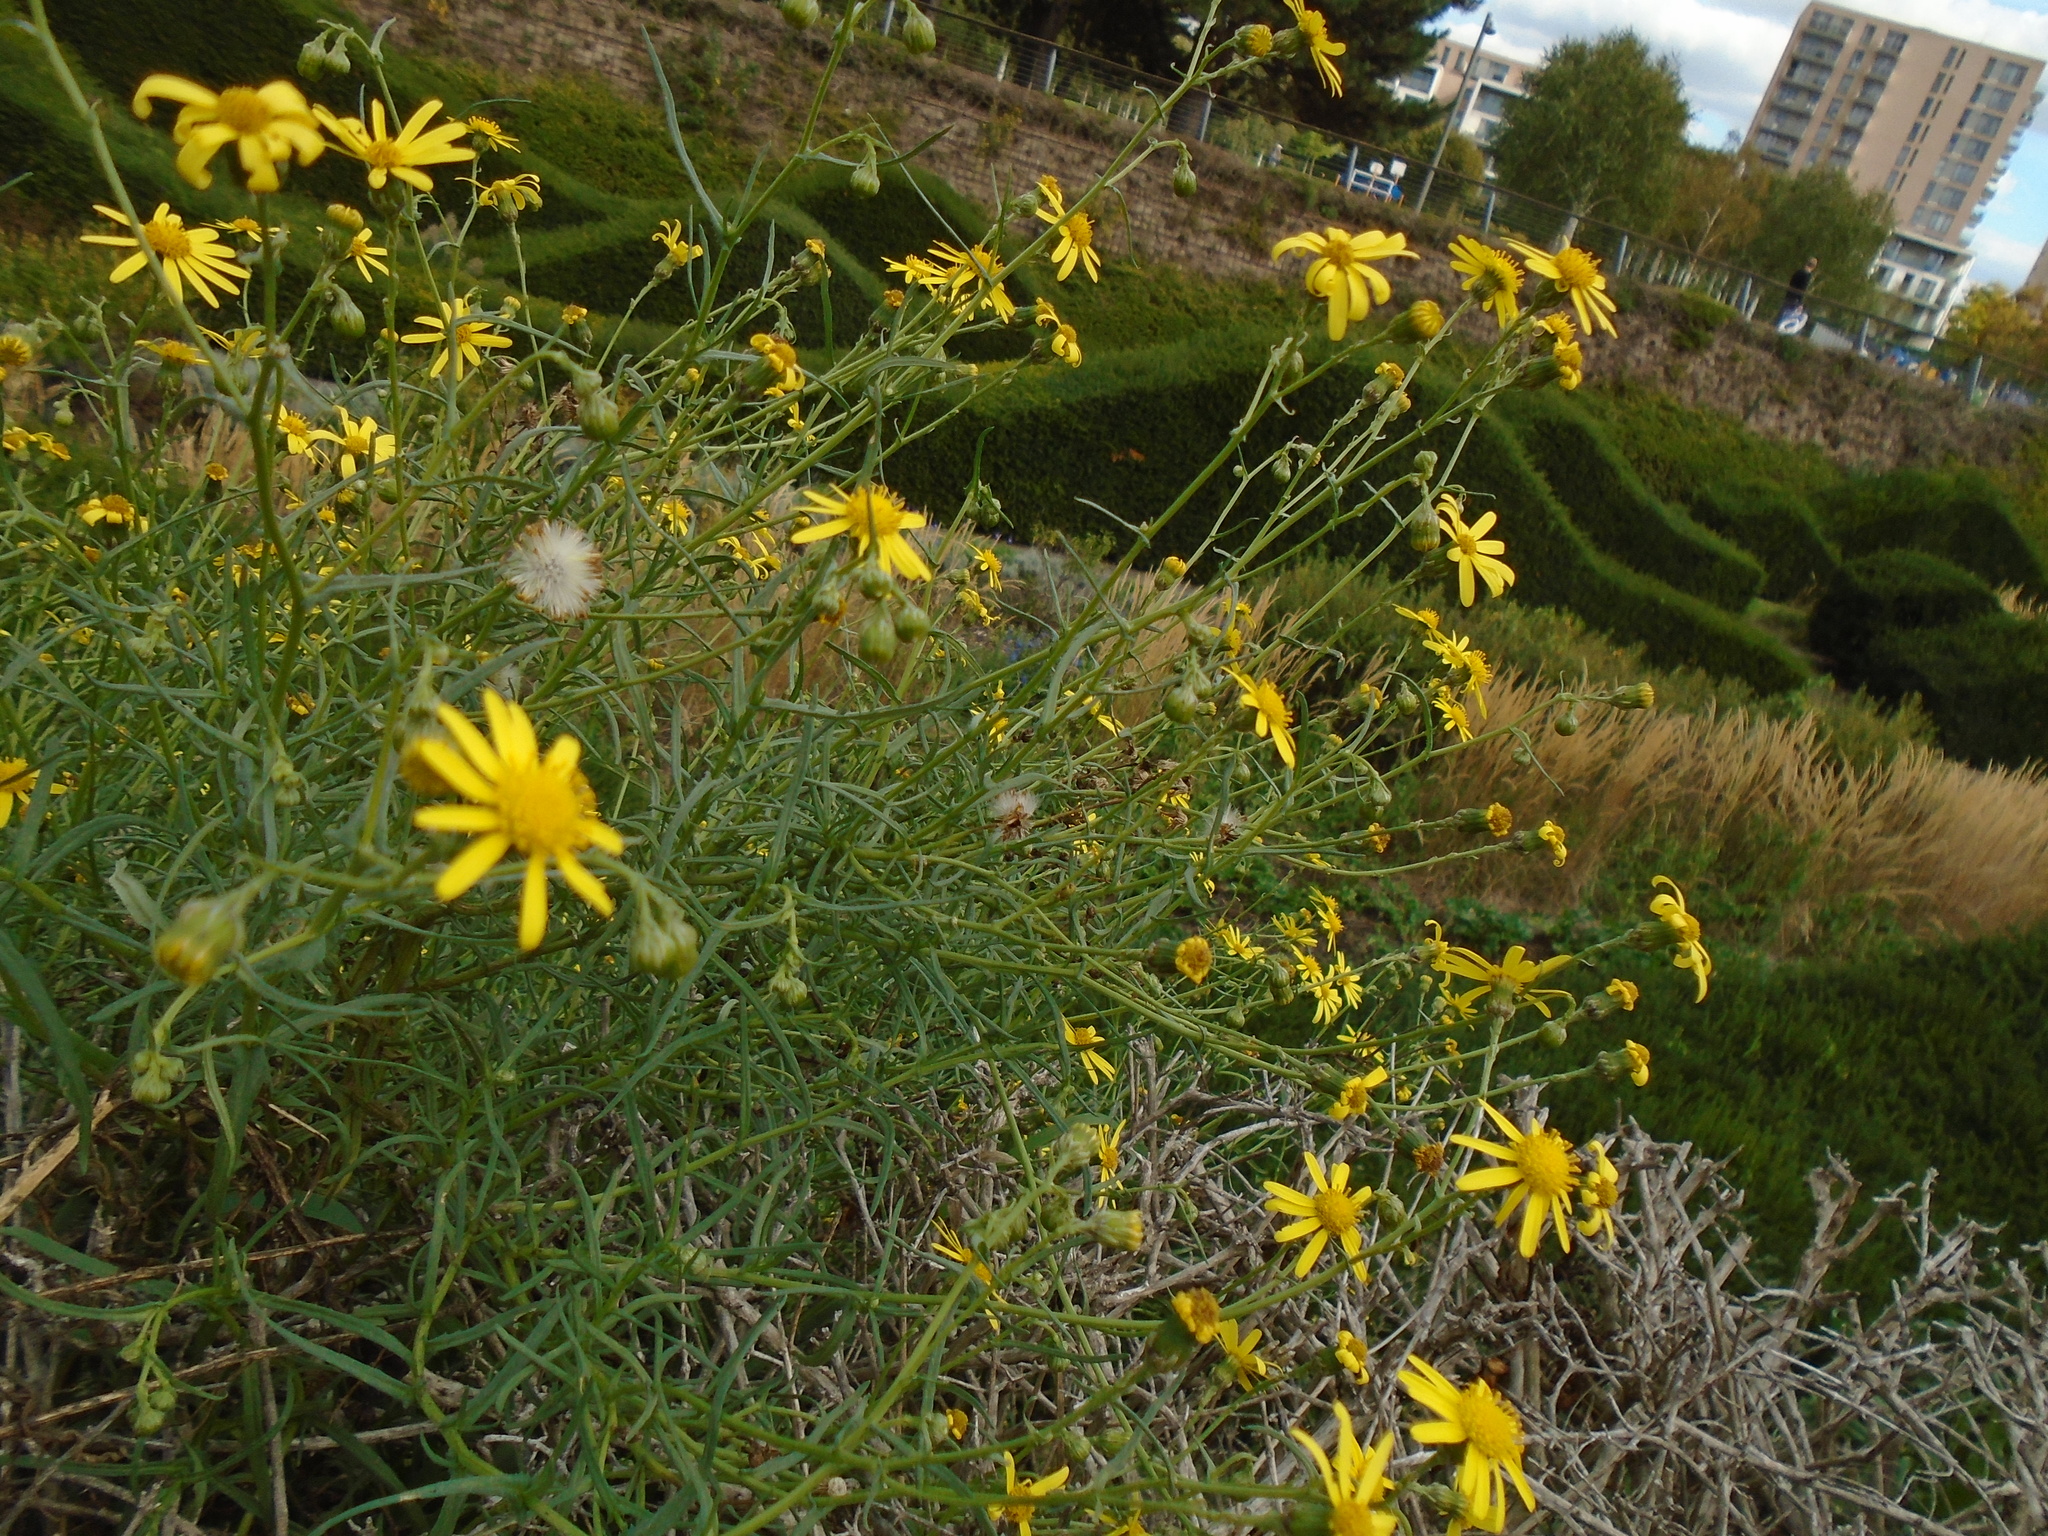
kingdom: Plantae
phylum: Tracheophyta
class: Magnoliopsida
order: Asterales
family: Asteraceae
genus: Senecio
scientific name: Senecio inaequidens
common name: Narrow-leaved ragwort
